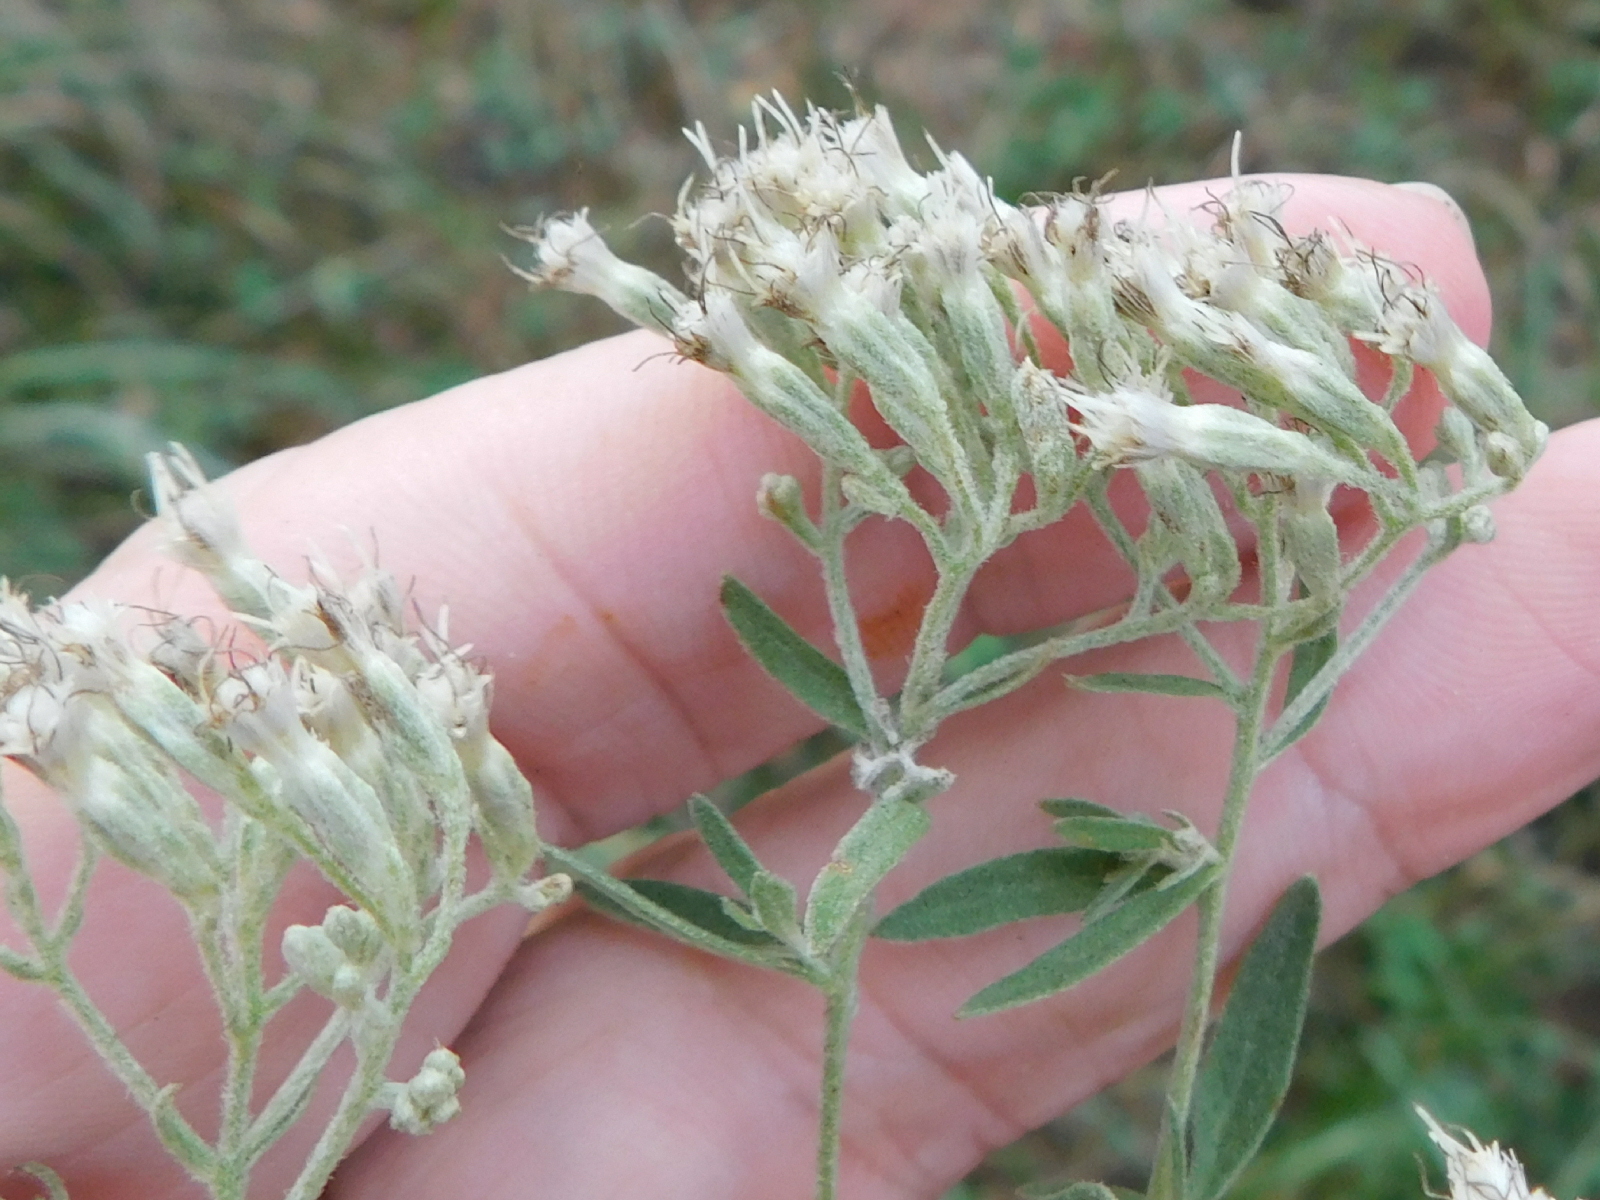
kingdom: Plantae
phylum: Tracheophyta
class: Magnoliopsida
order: Asterales
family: Asteraceae
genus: Eupatorium
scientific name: Eupatorium semiserratum
